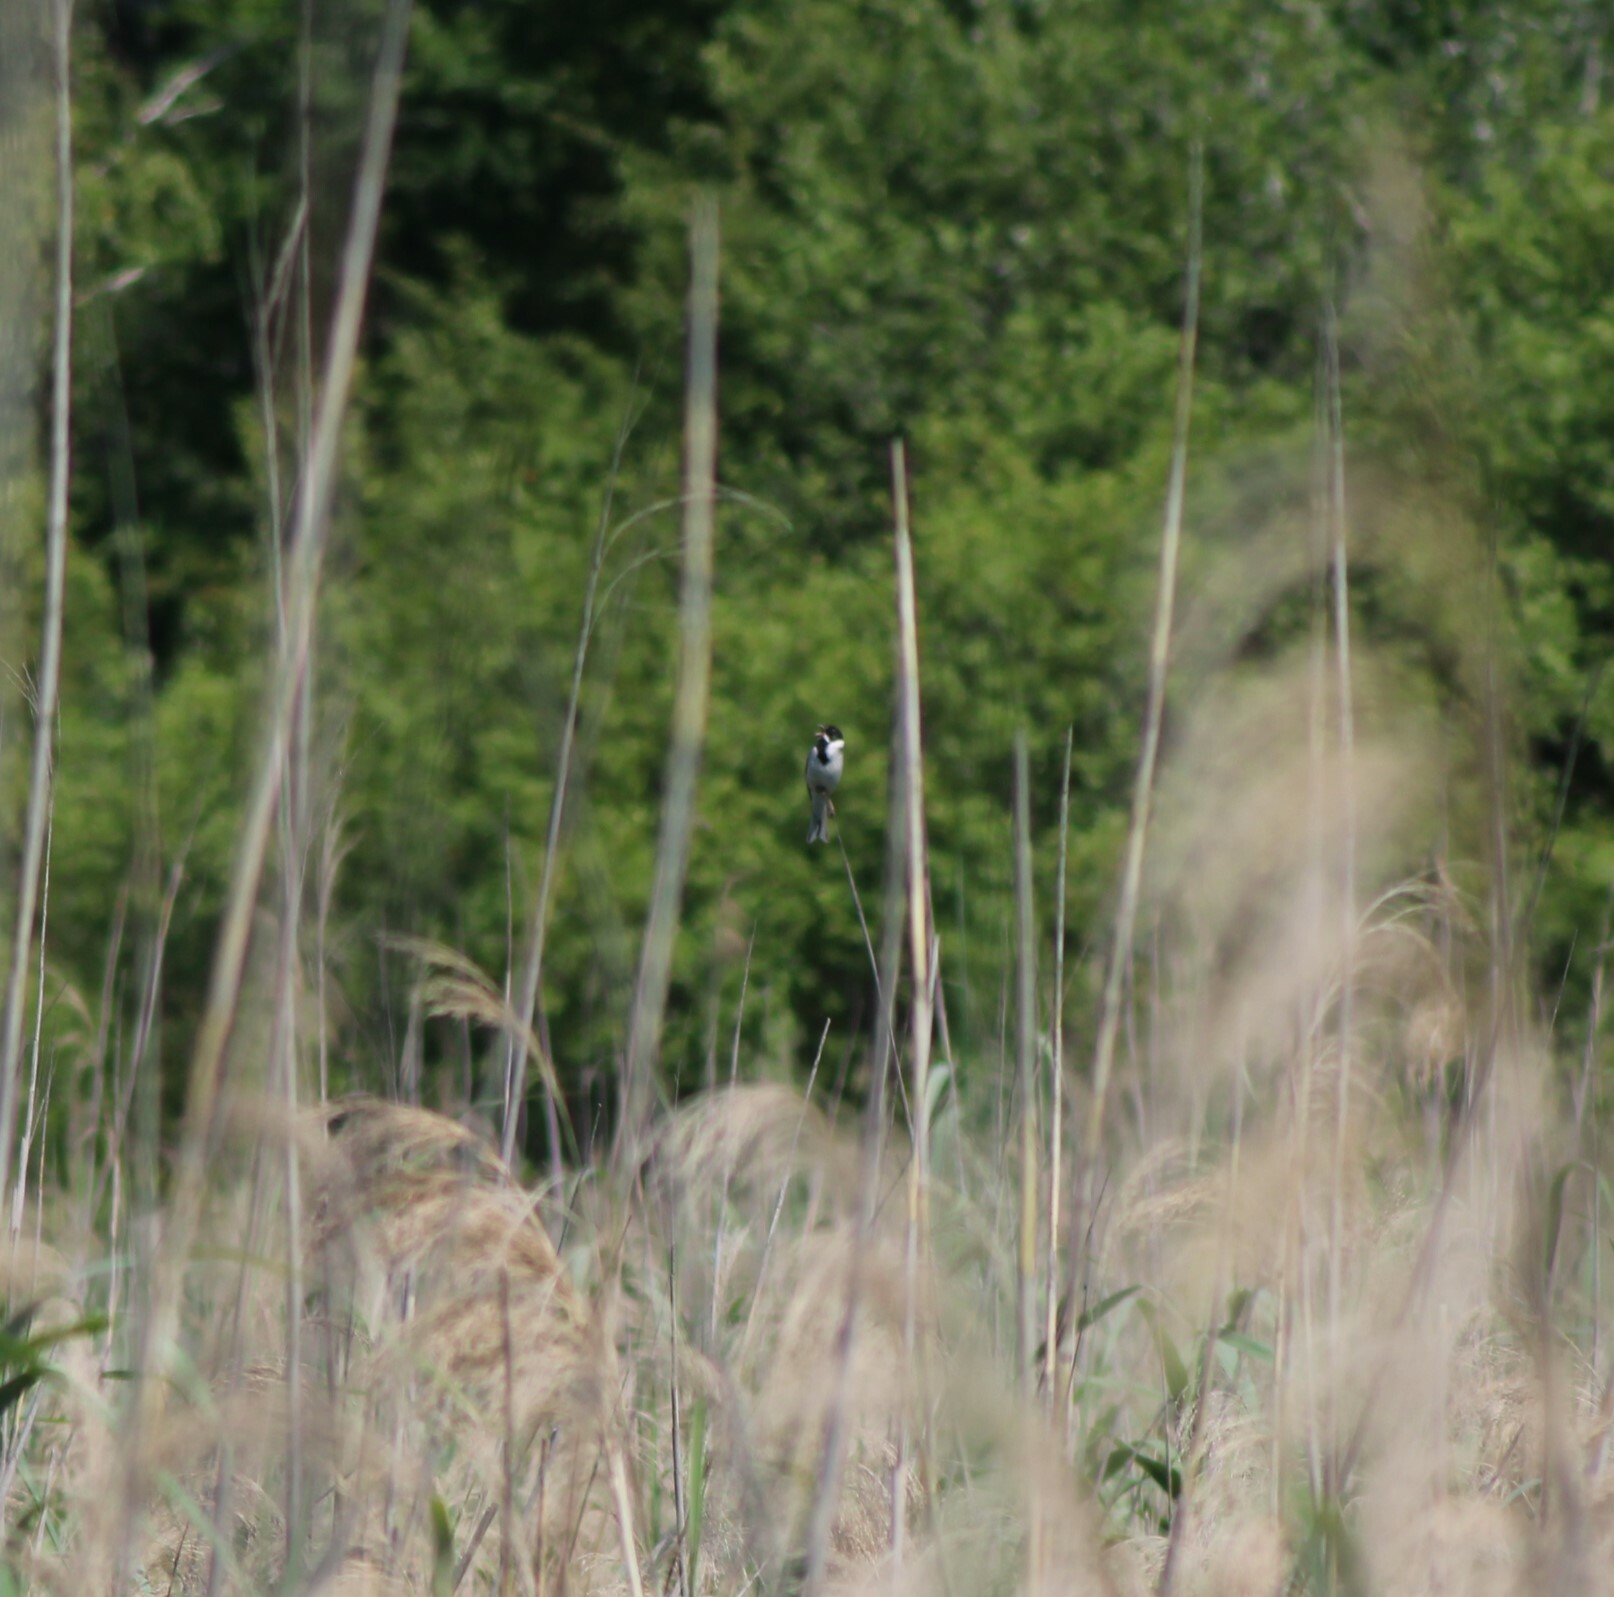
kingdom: Animalia
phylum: Chordata
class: Aves
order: Passeriformes
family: Emberizidae
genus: Emberiza
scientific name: Emberiza schoeniclus
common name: Reed bunting
